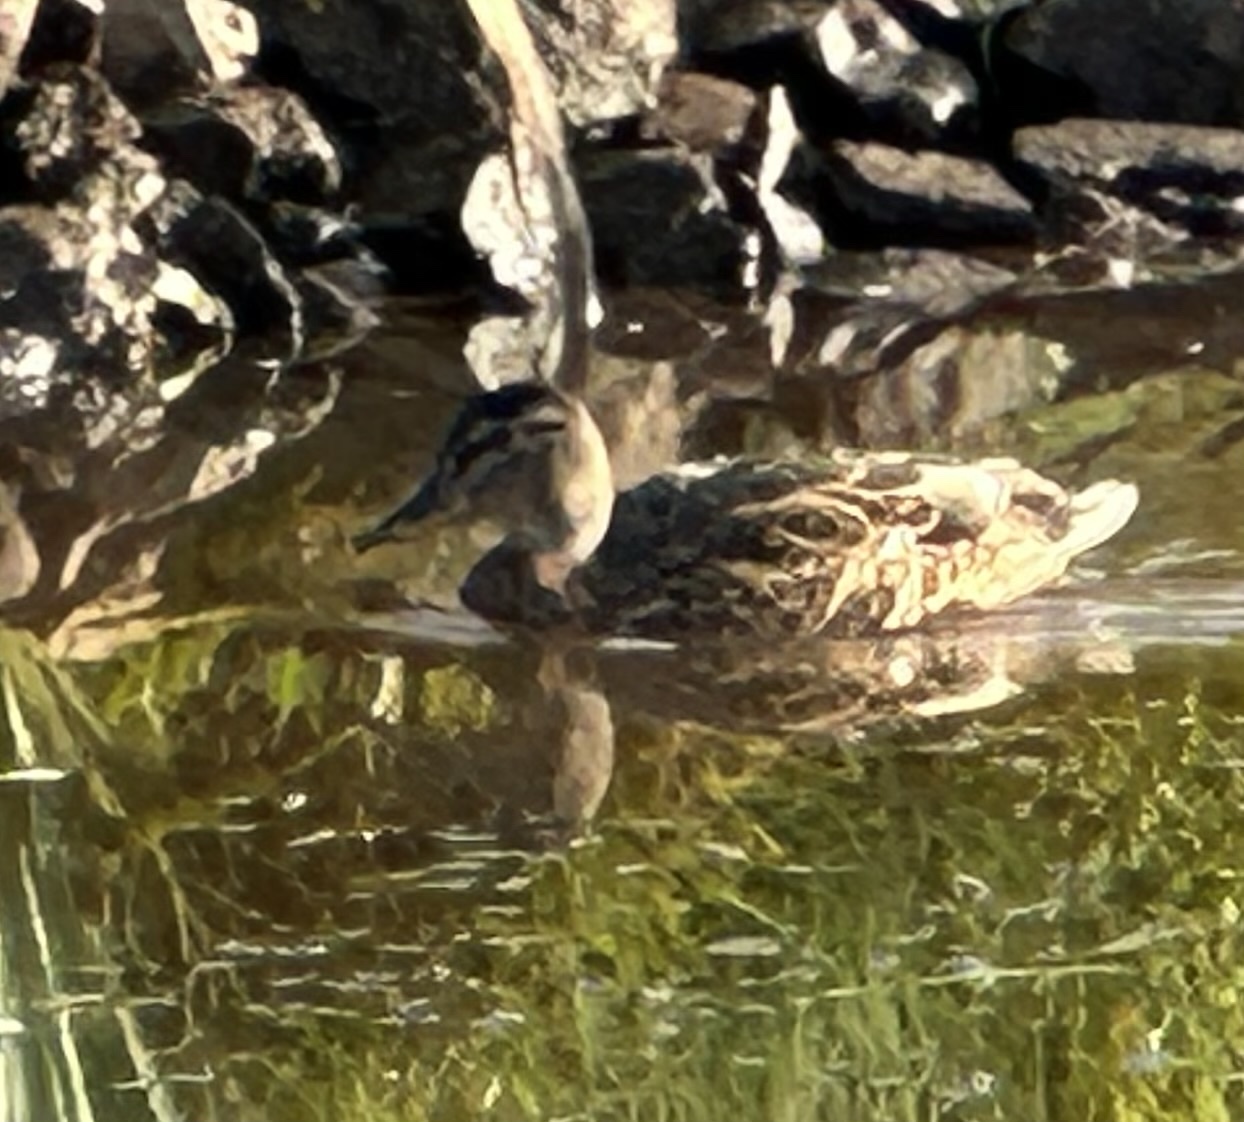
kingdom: Animalia
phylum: Chordata
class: Aves
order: Anseriformes
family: Anatidae
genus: Anas
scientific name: Anas platyrhynchos
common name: Mallard
